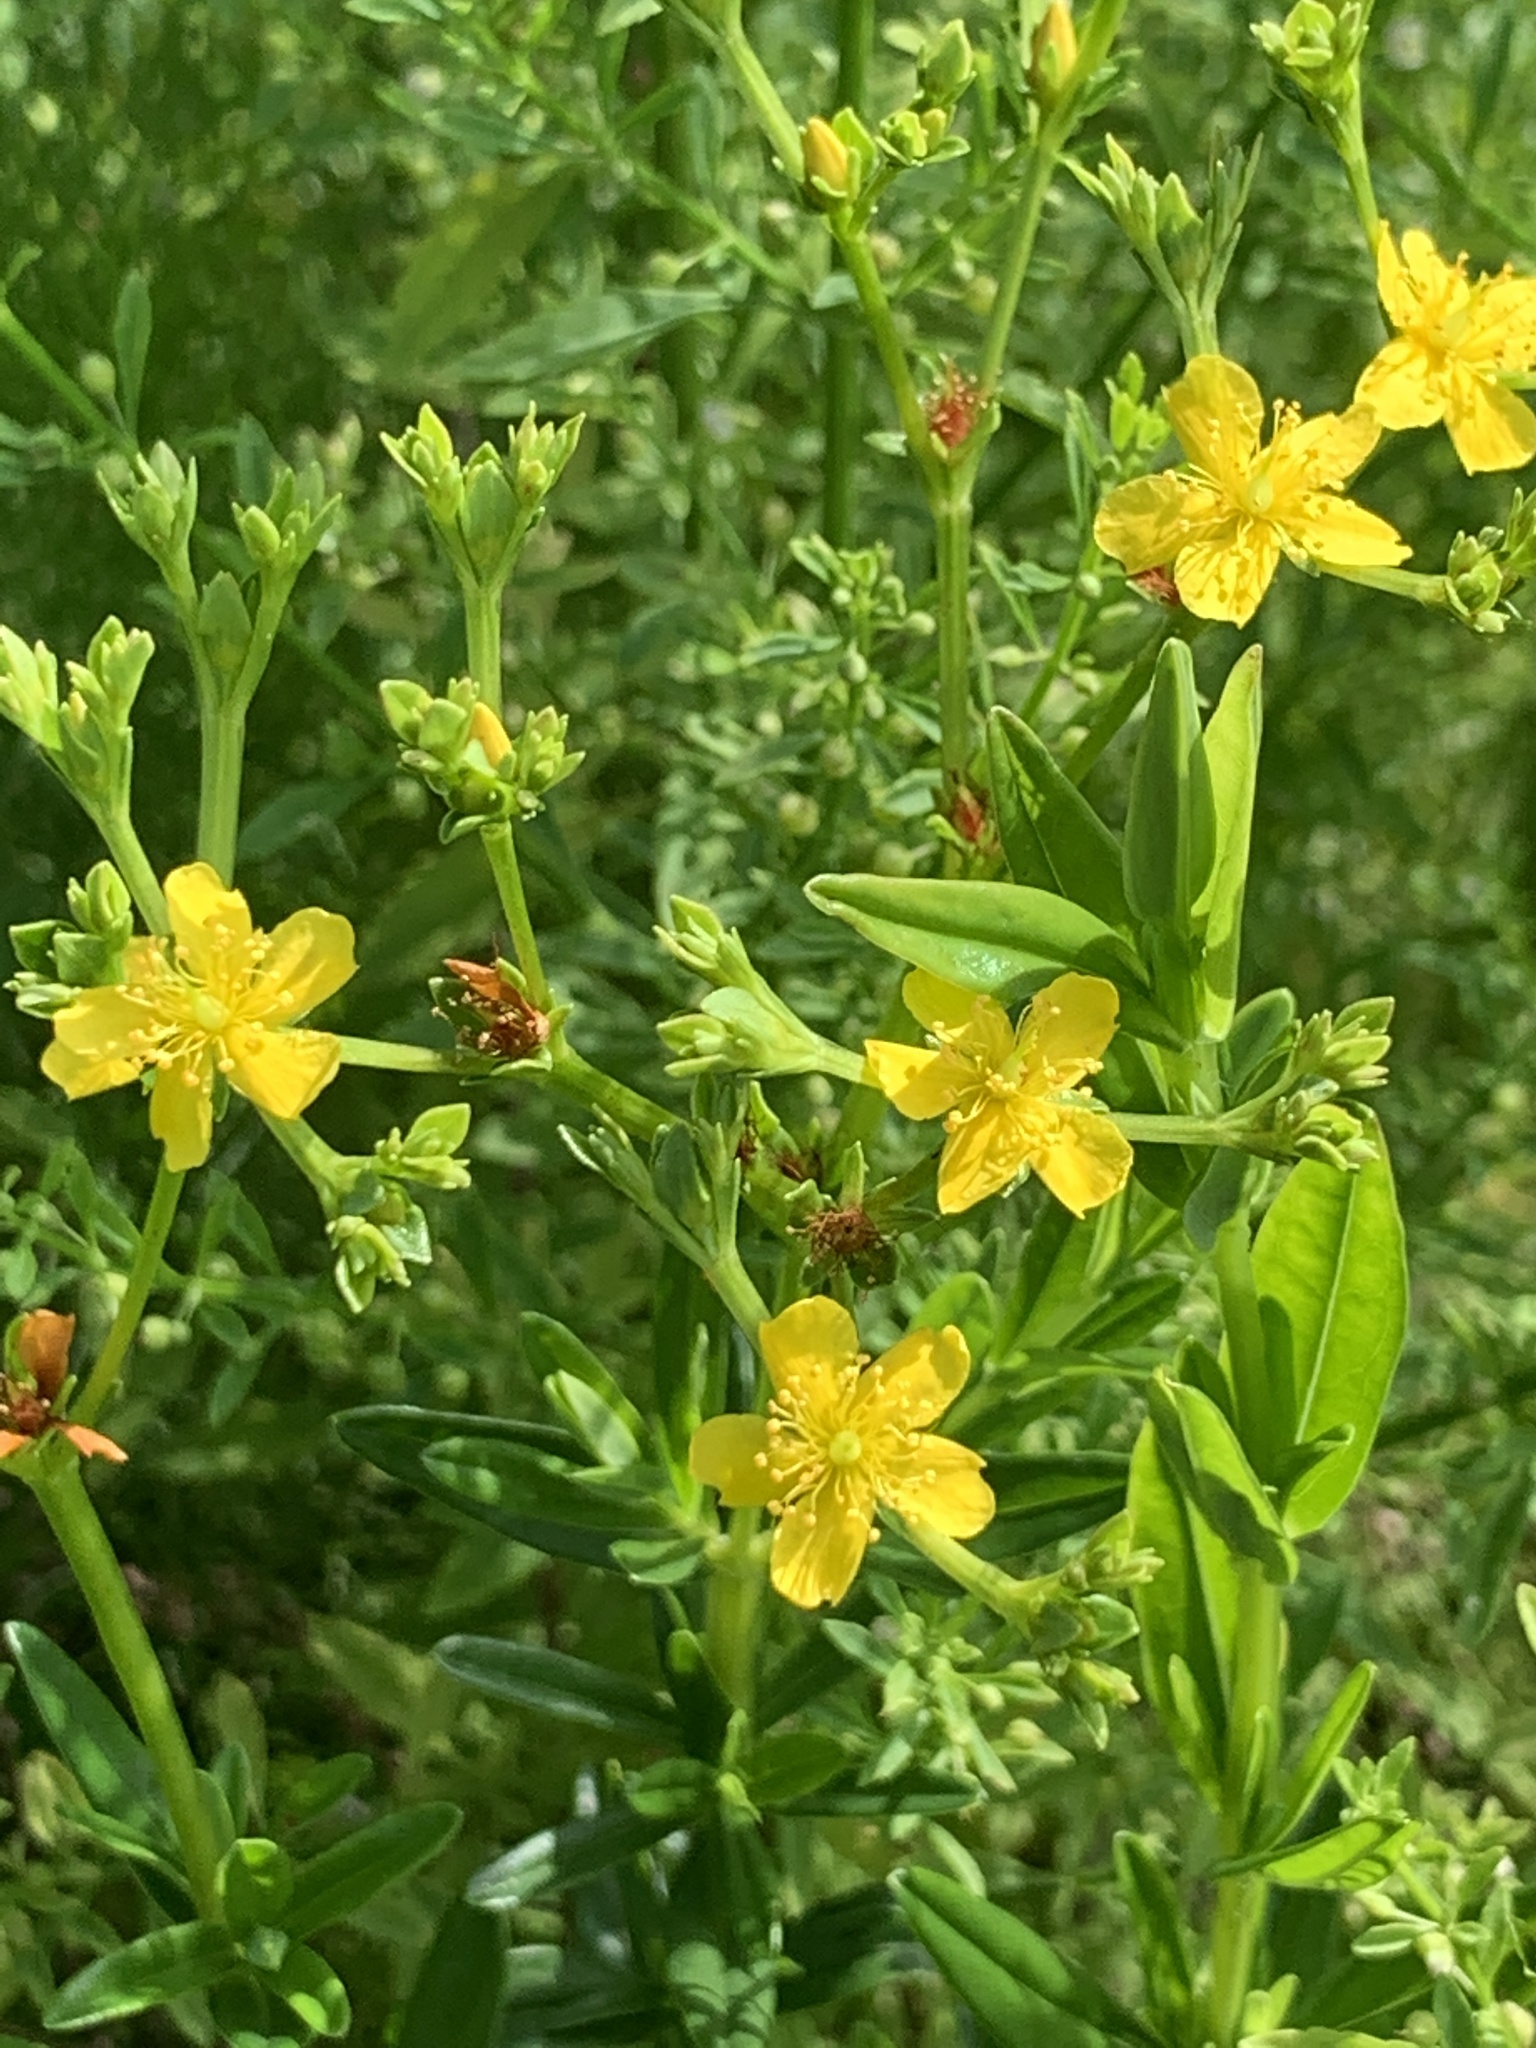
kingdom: Plantae
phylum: Tracheophyta
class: Magnoliopsida
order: Malpighiales
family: Hypericaceae
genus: Hypericum
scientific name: Hypericum cistifolium
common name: Round-pod st. john's-wort
